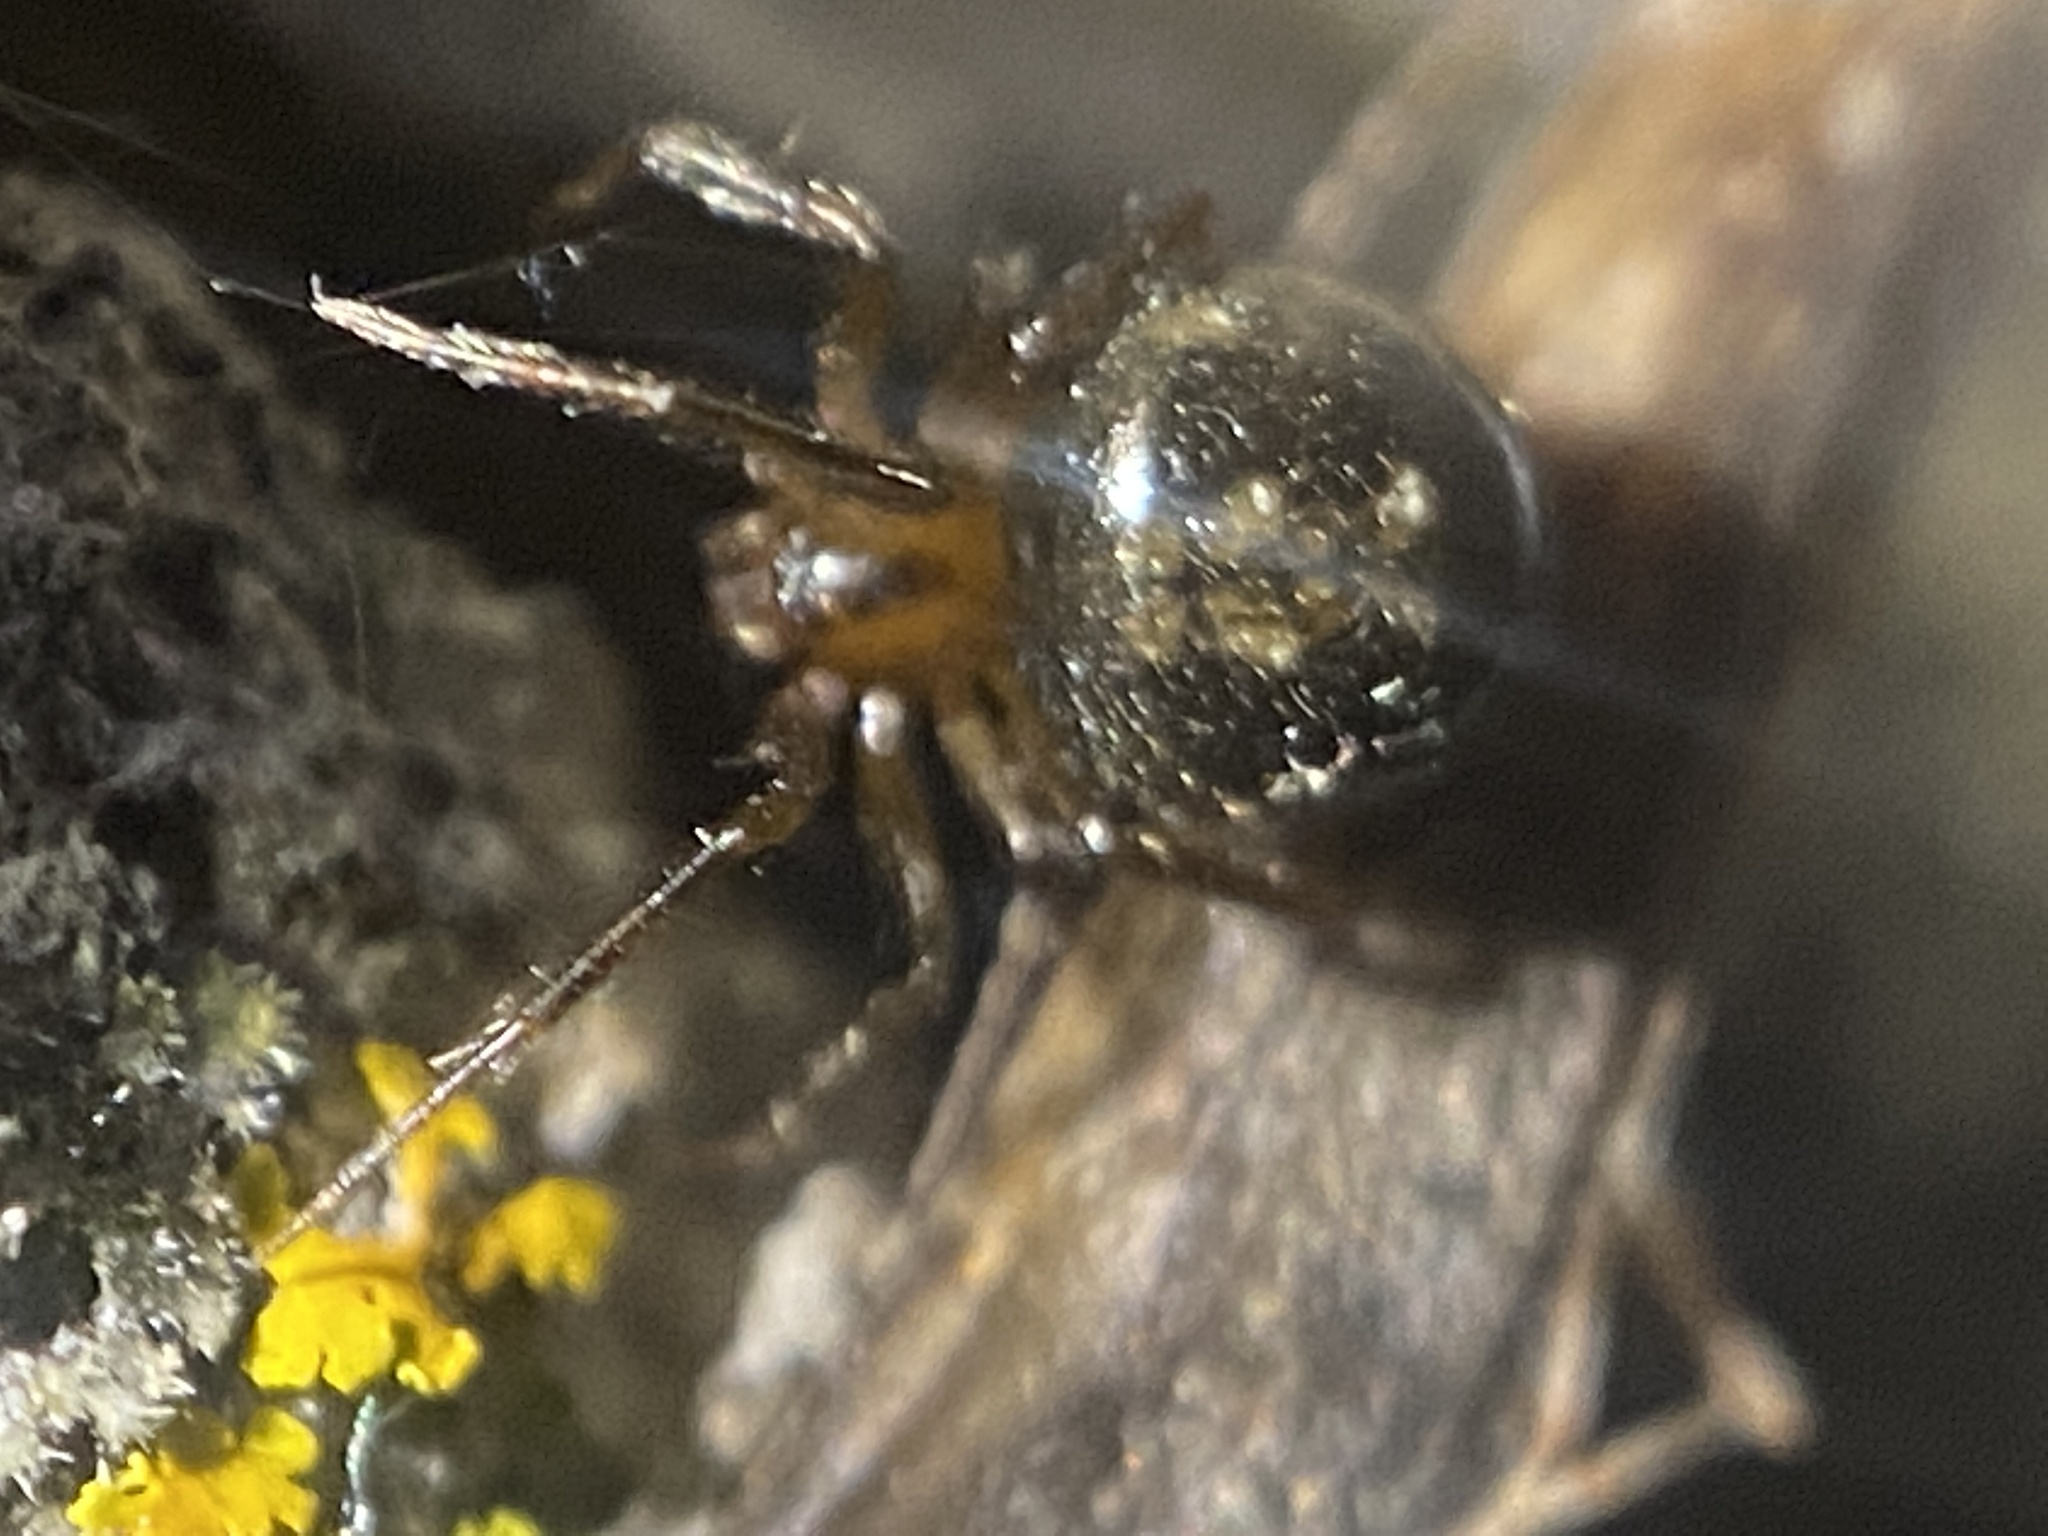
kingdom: Animalia
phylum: Arthropoda
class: Arachnida
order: Araneae
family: Theridiidae
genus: Platnickina
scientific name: Platnickina alabamensis
